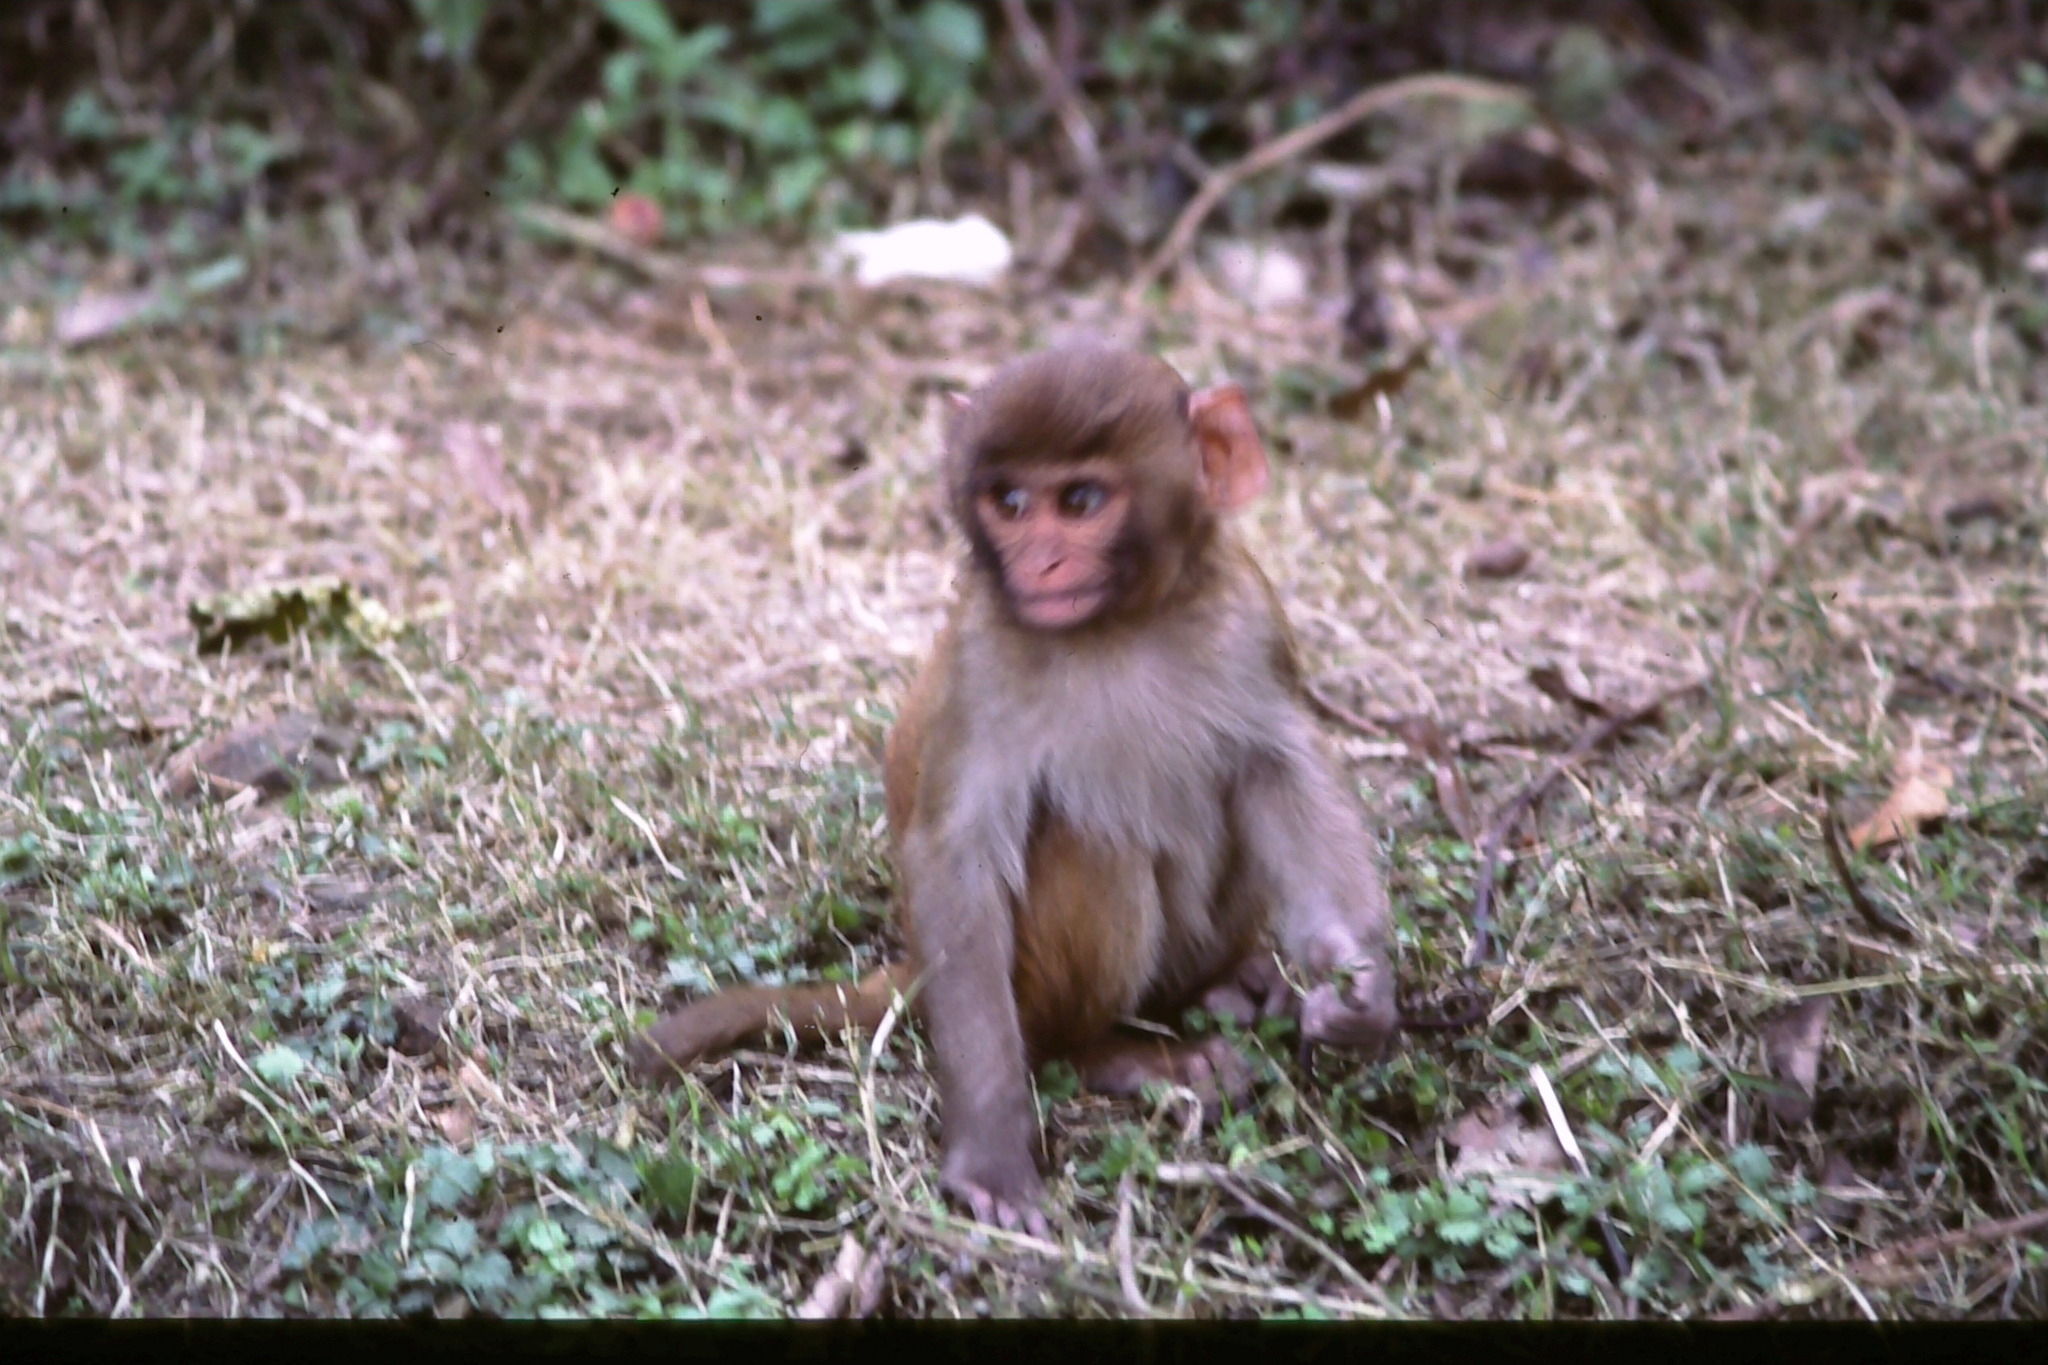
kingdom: Animalia
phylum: Chordata
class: Mammalia
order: Primates
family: Cercopithecidae
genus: Macaca
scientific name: Macaca mulatta
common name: Rhesus monkey
